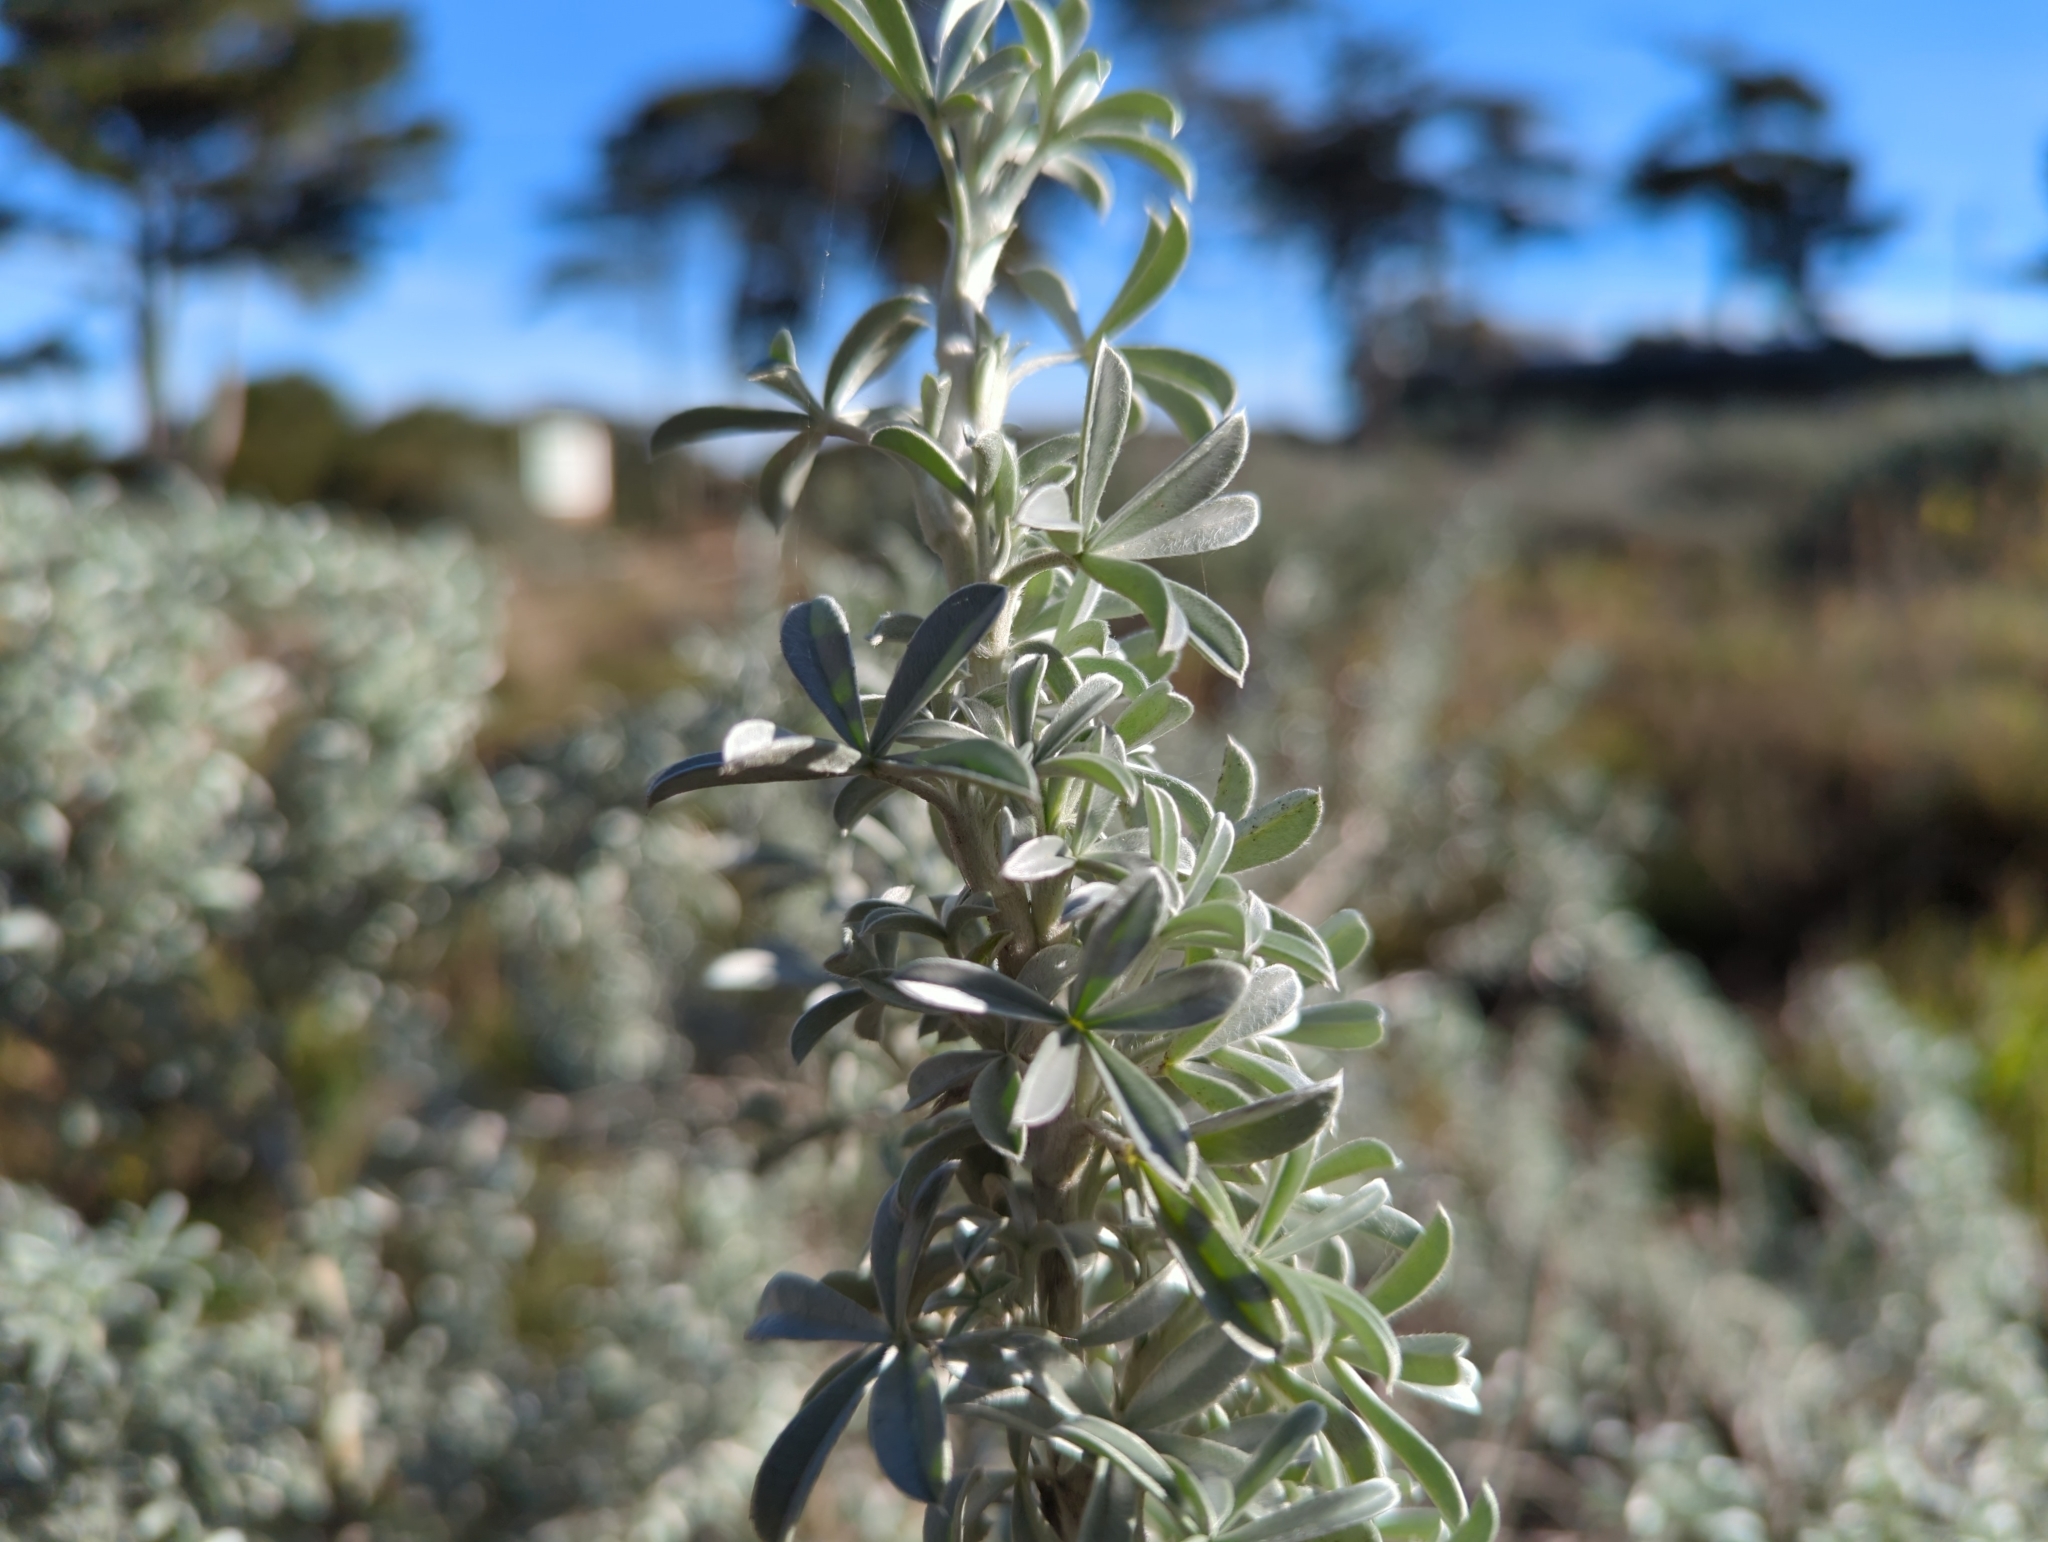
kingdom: Plantae
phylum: Tracheophyta
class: Magnoliopsida
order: Fabales
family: Fabaceae
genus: Lupinus
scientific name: Lupinus chamissonis
